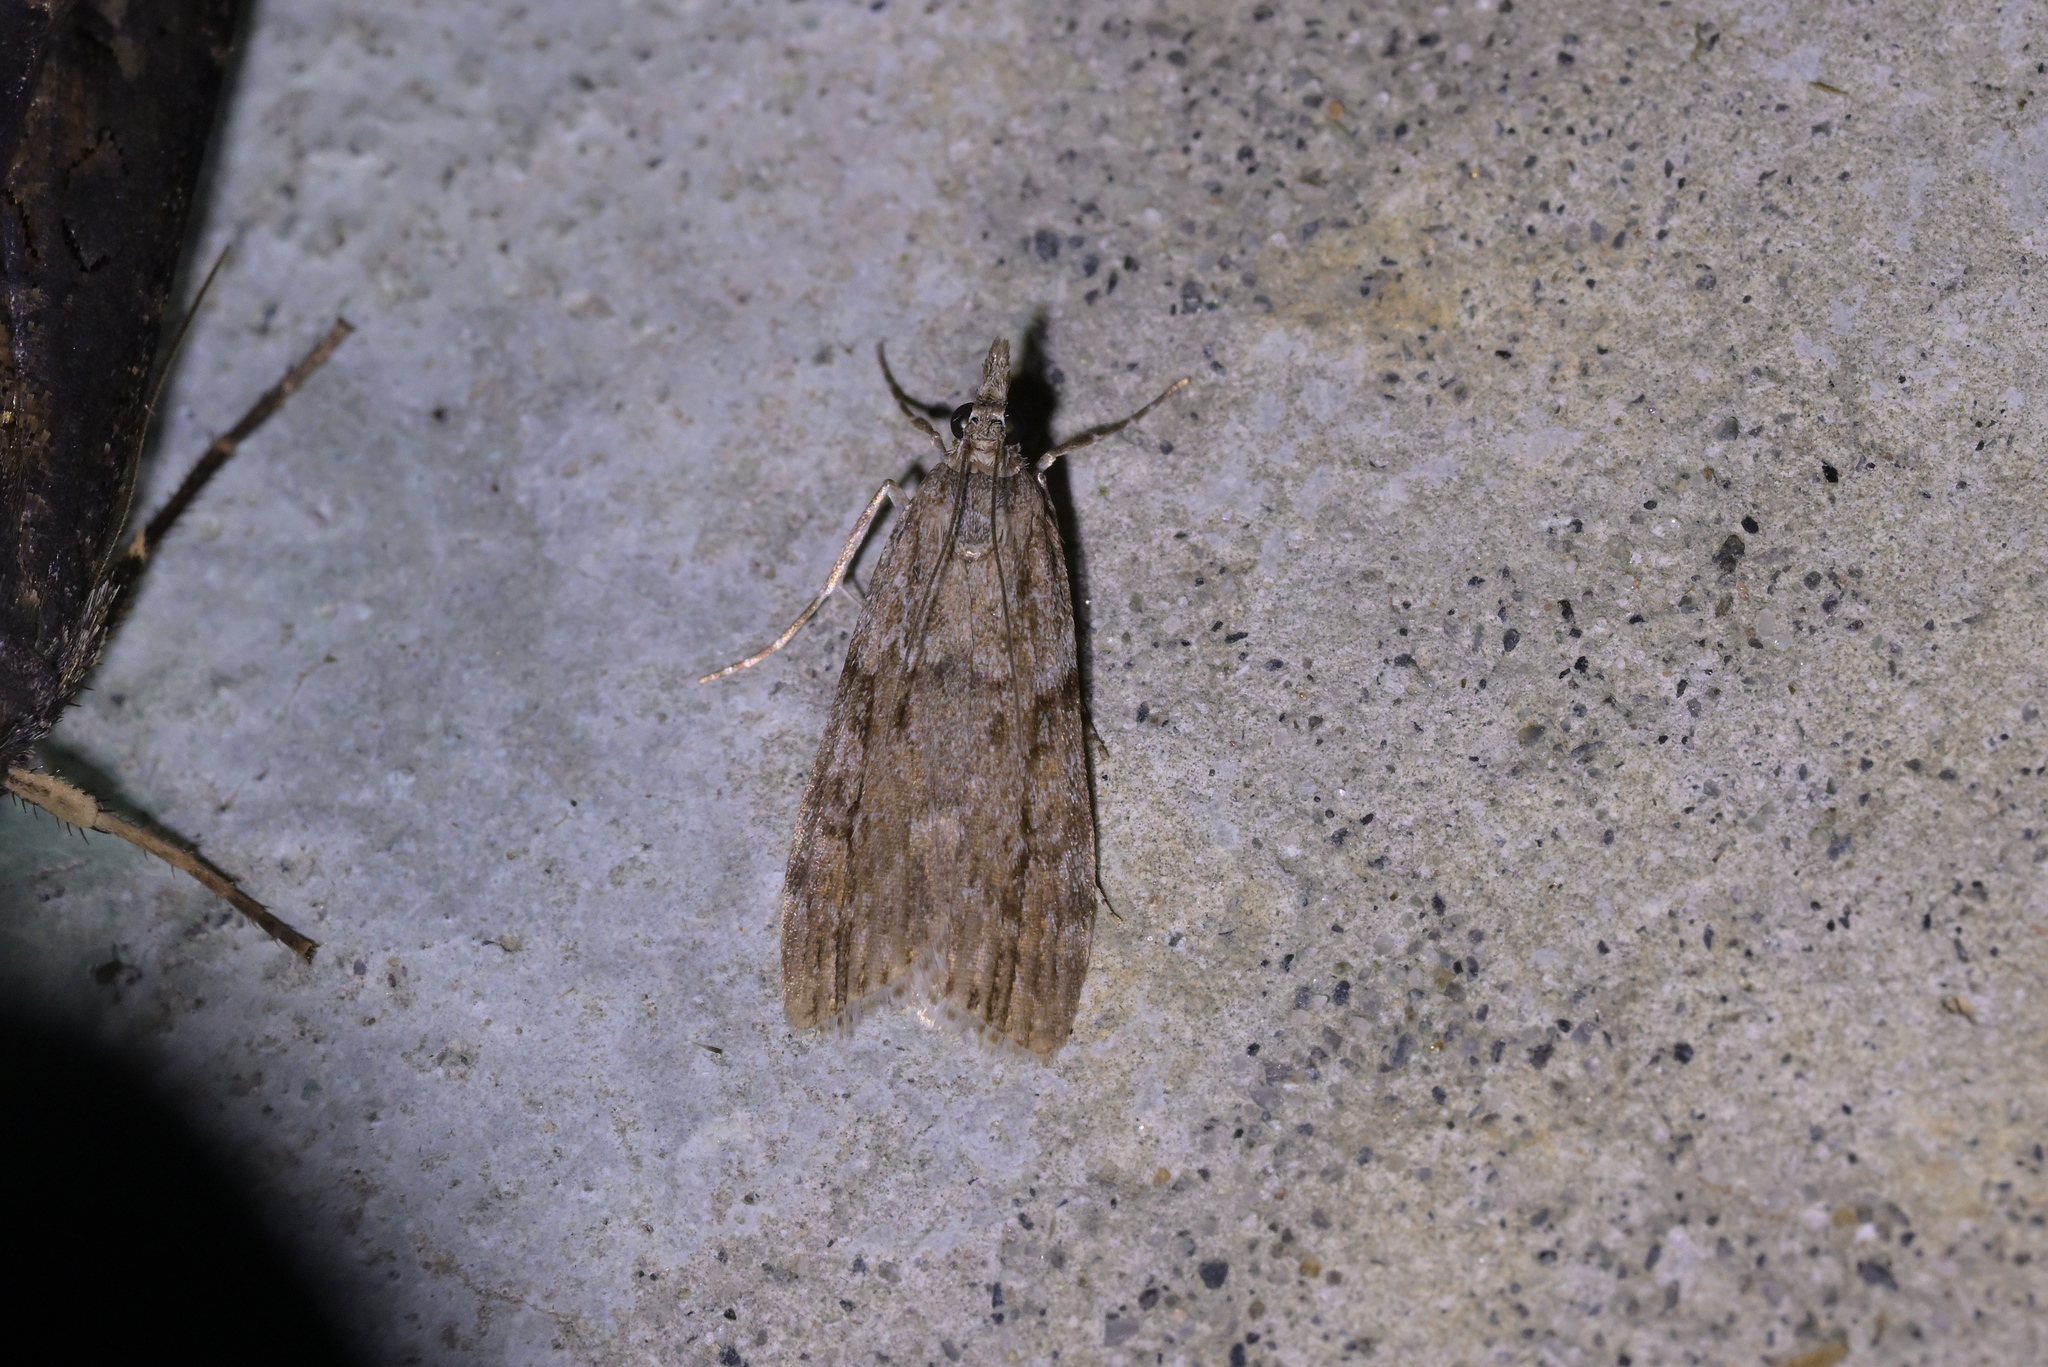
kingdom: Animalia
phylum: Arthropoda
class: Insecta
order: Lepidoptera
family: Crambidae
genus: Eudonia
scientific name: Eudonia bisinualis
